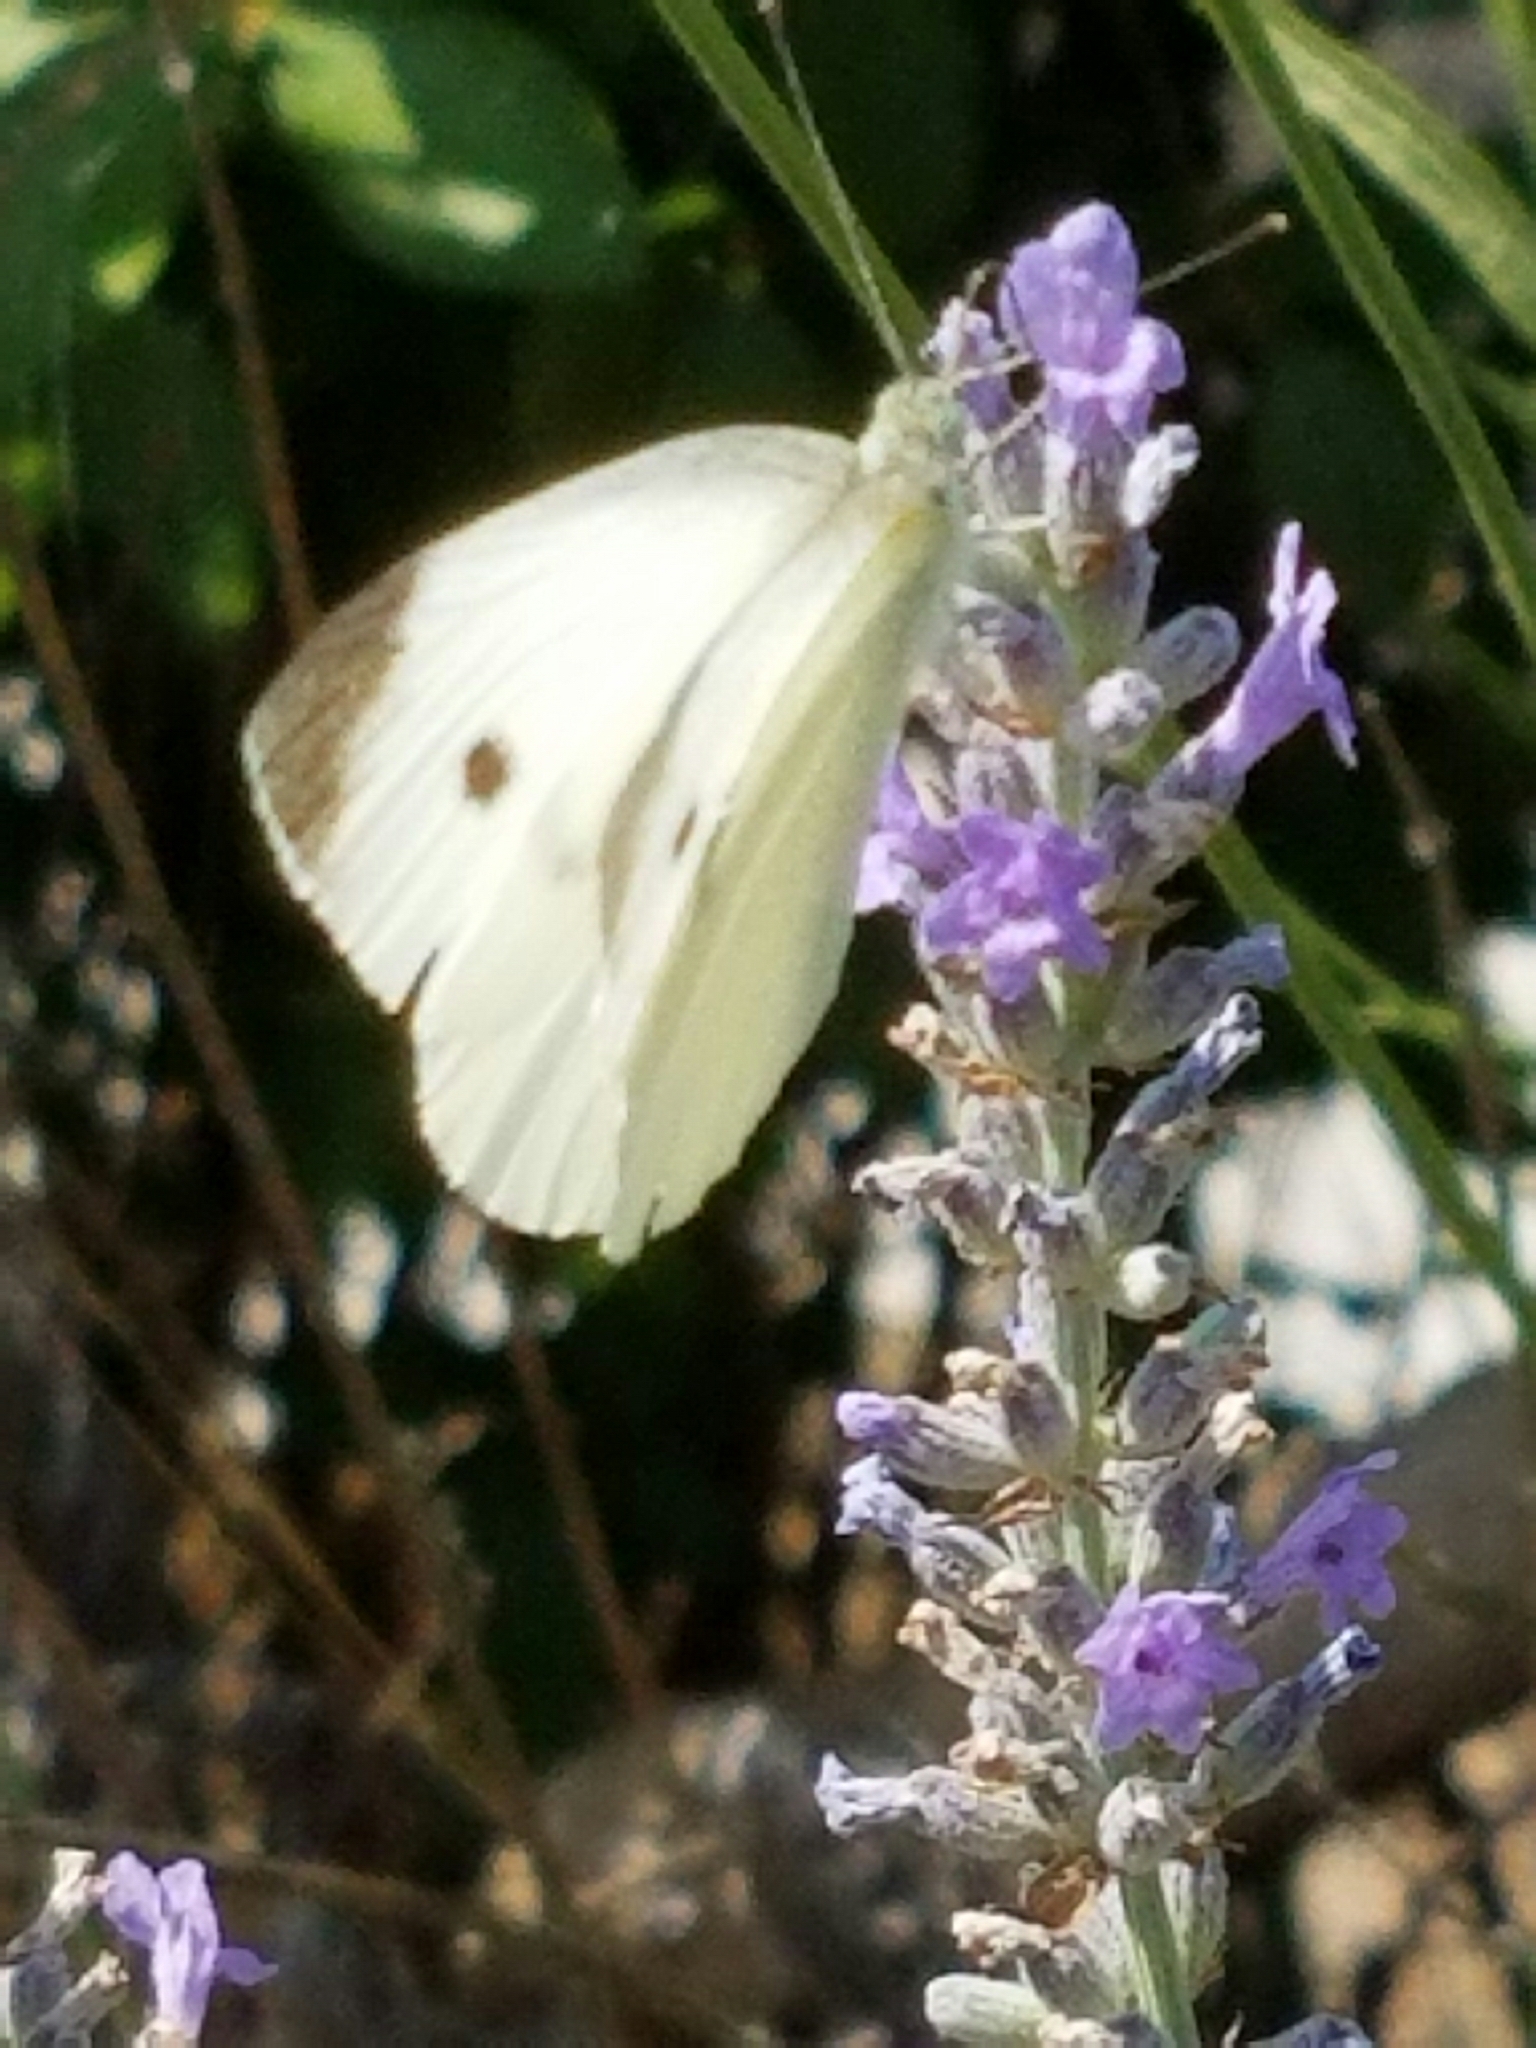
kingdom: Animalia
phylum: Arthropoda
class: Insecta
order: Lepidoptera
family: Pieridae
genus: Pieris
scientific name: Pieris rapae
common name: Small white
